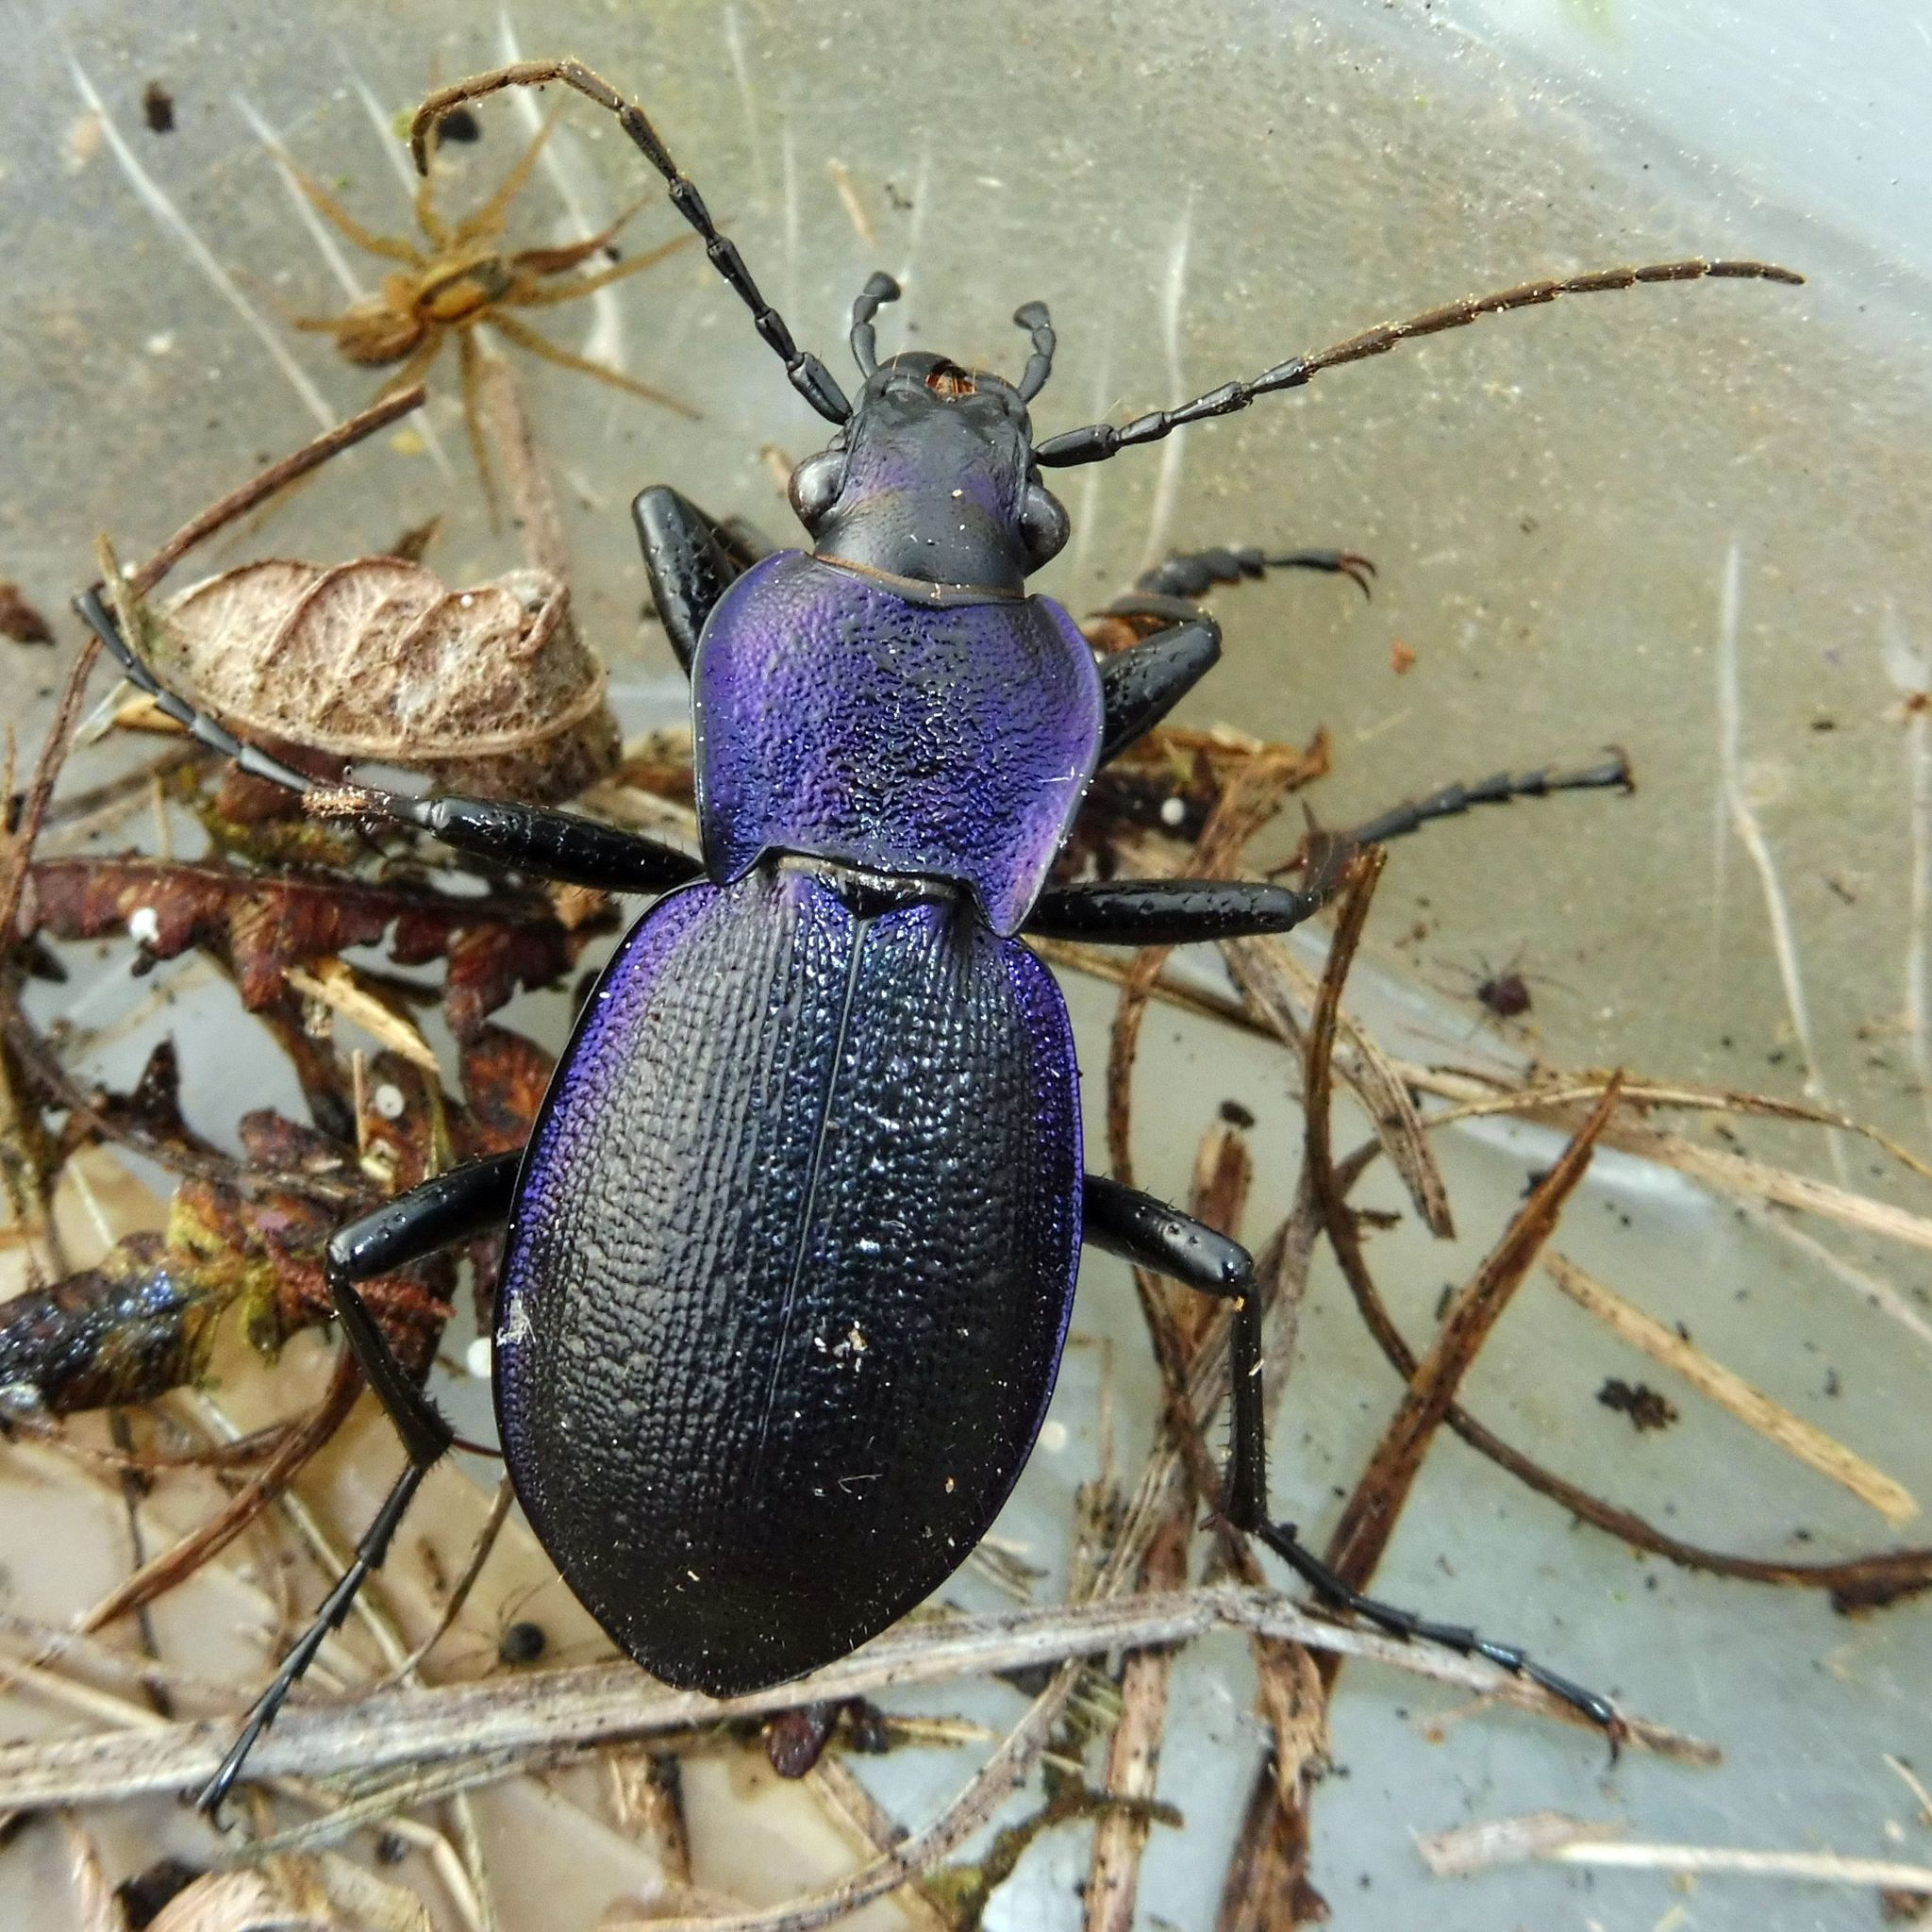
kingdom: Animalia
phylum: Arthropoda
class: Insecta
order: Coleoptera
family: Carabidae
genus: Carabus
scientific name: Carabus problematicus
